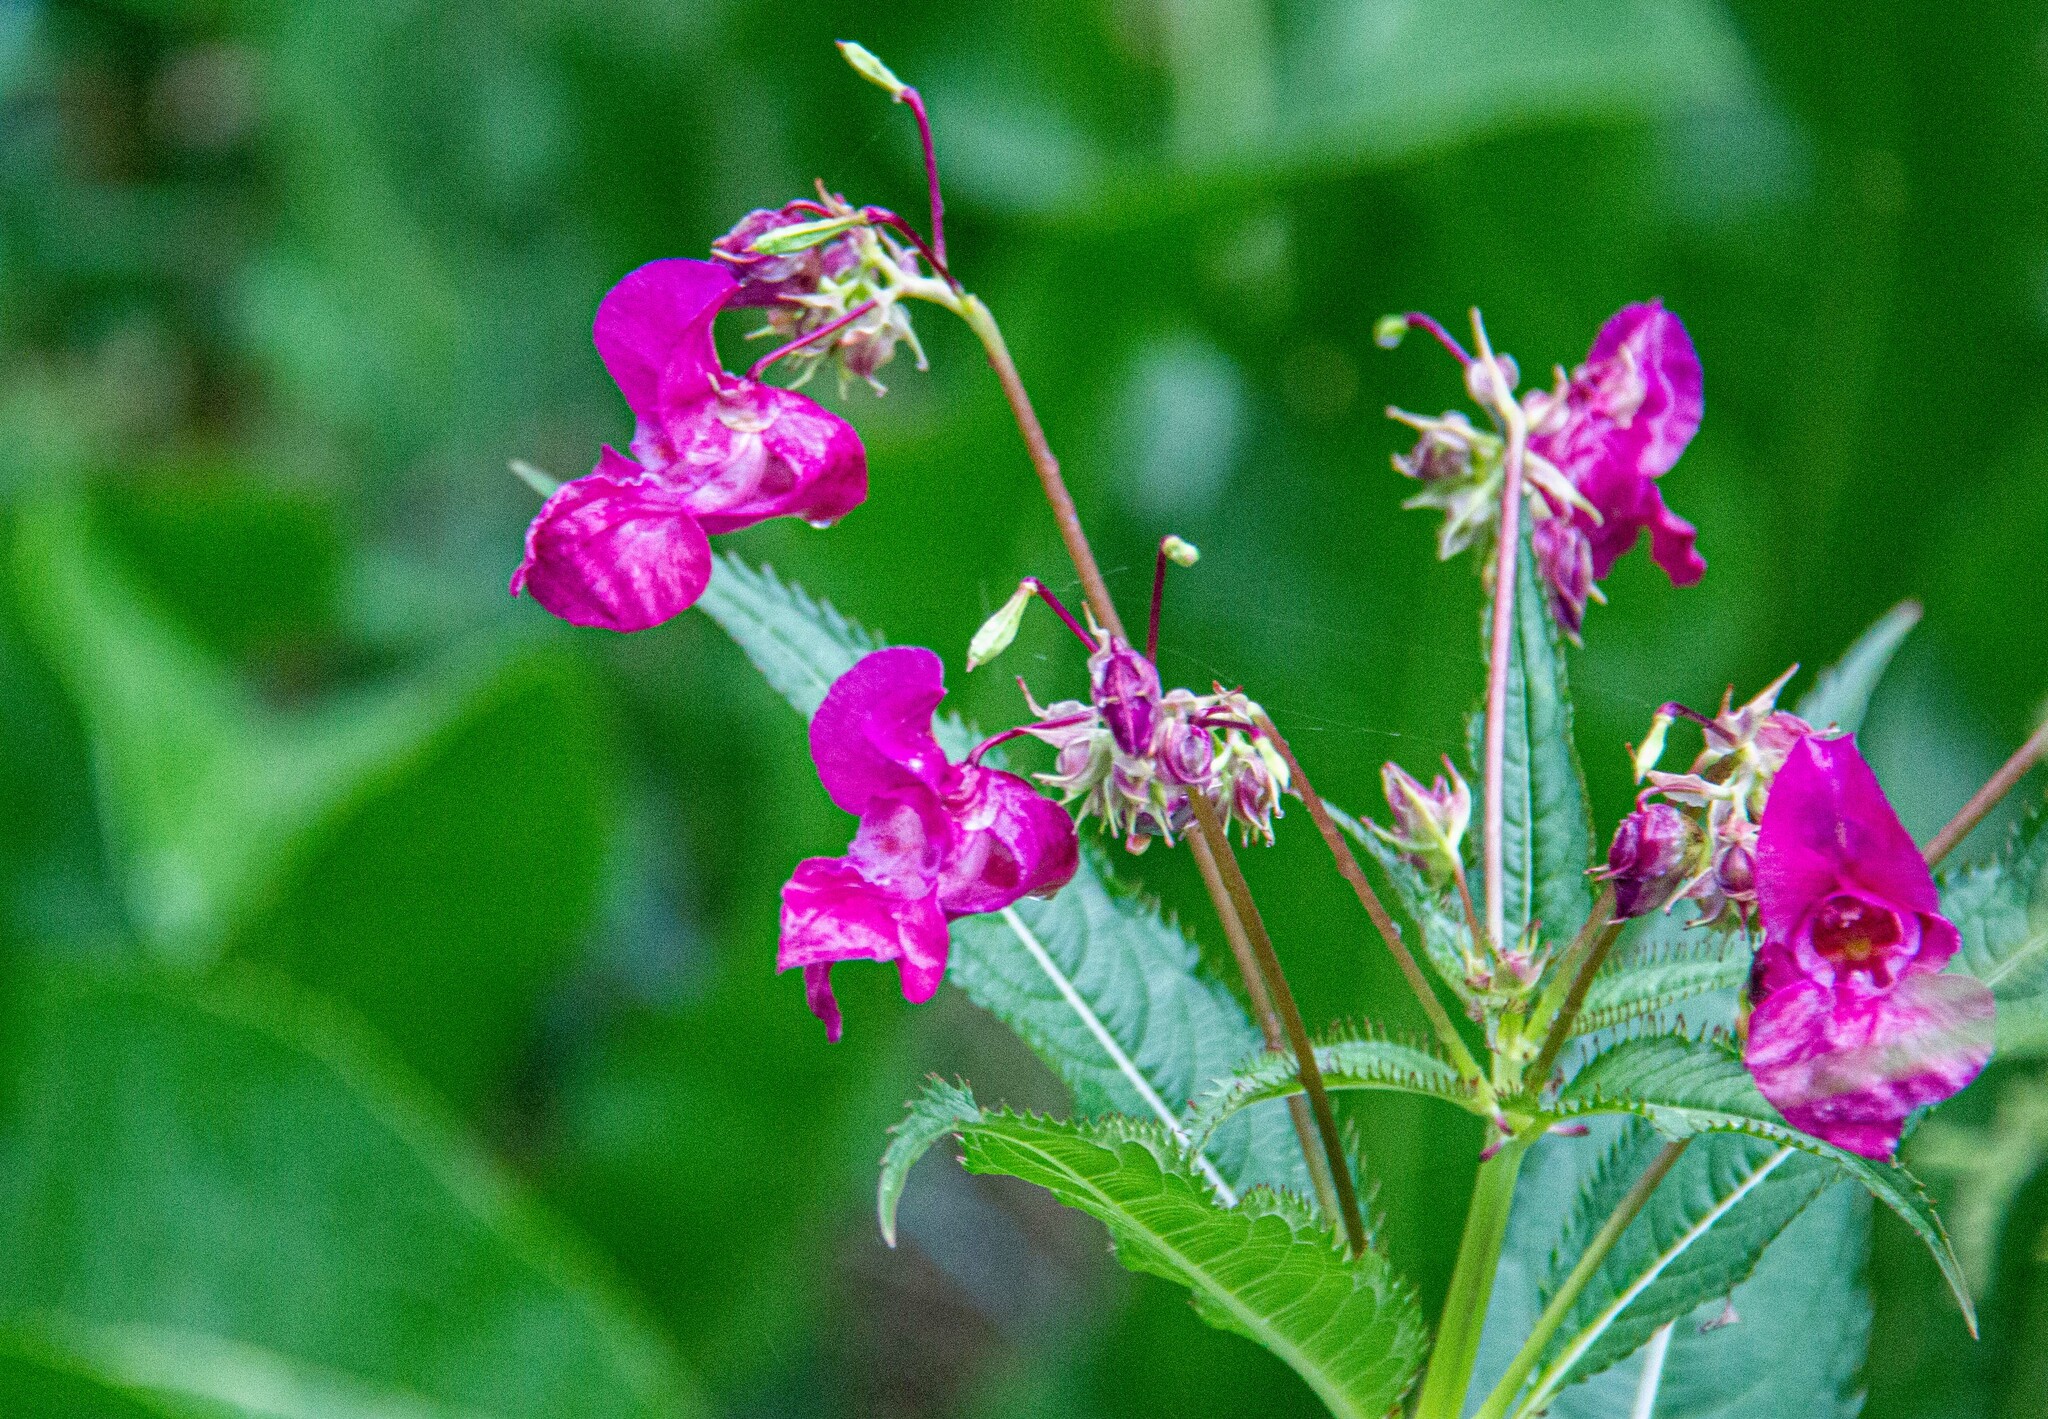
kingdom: Plantae
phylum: Tracheophyta
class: Magnoliopsida
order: Ericales
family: Balsaminaceae
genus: Impatiens
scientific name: Impatiens glandulifera
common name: Himalayan balsam
